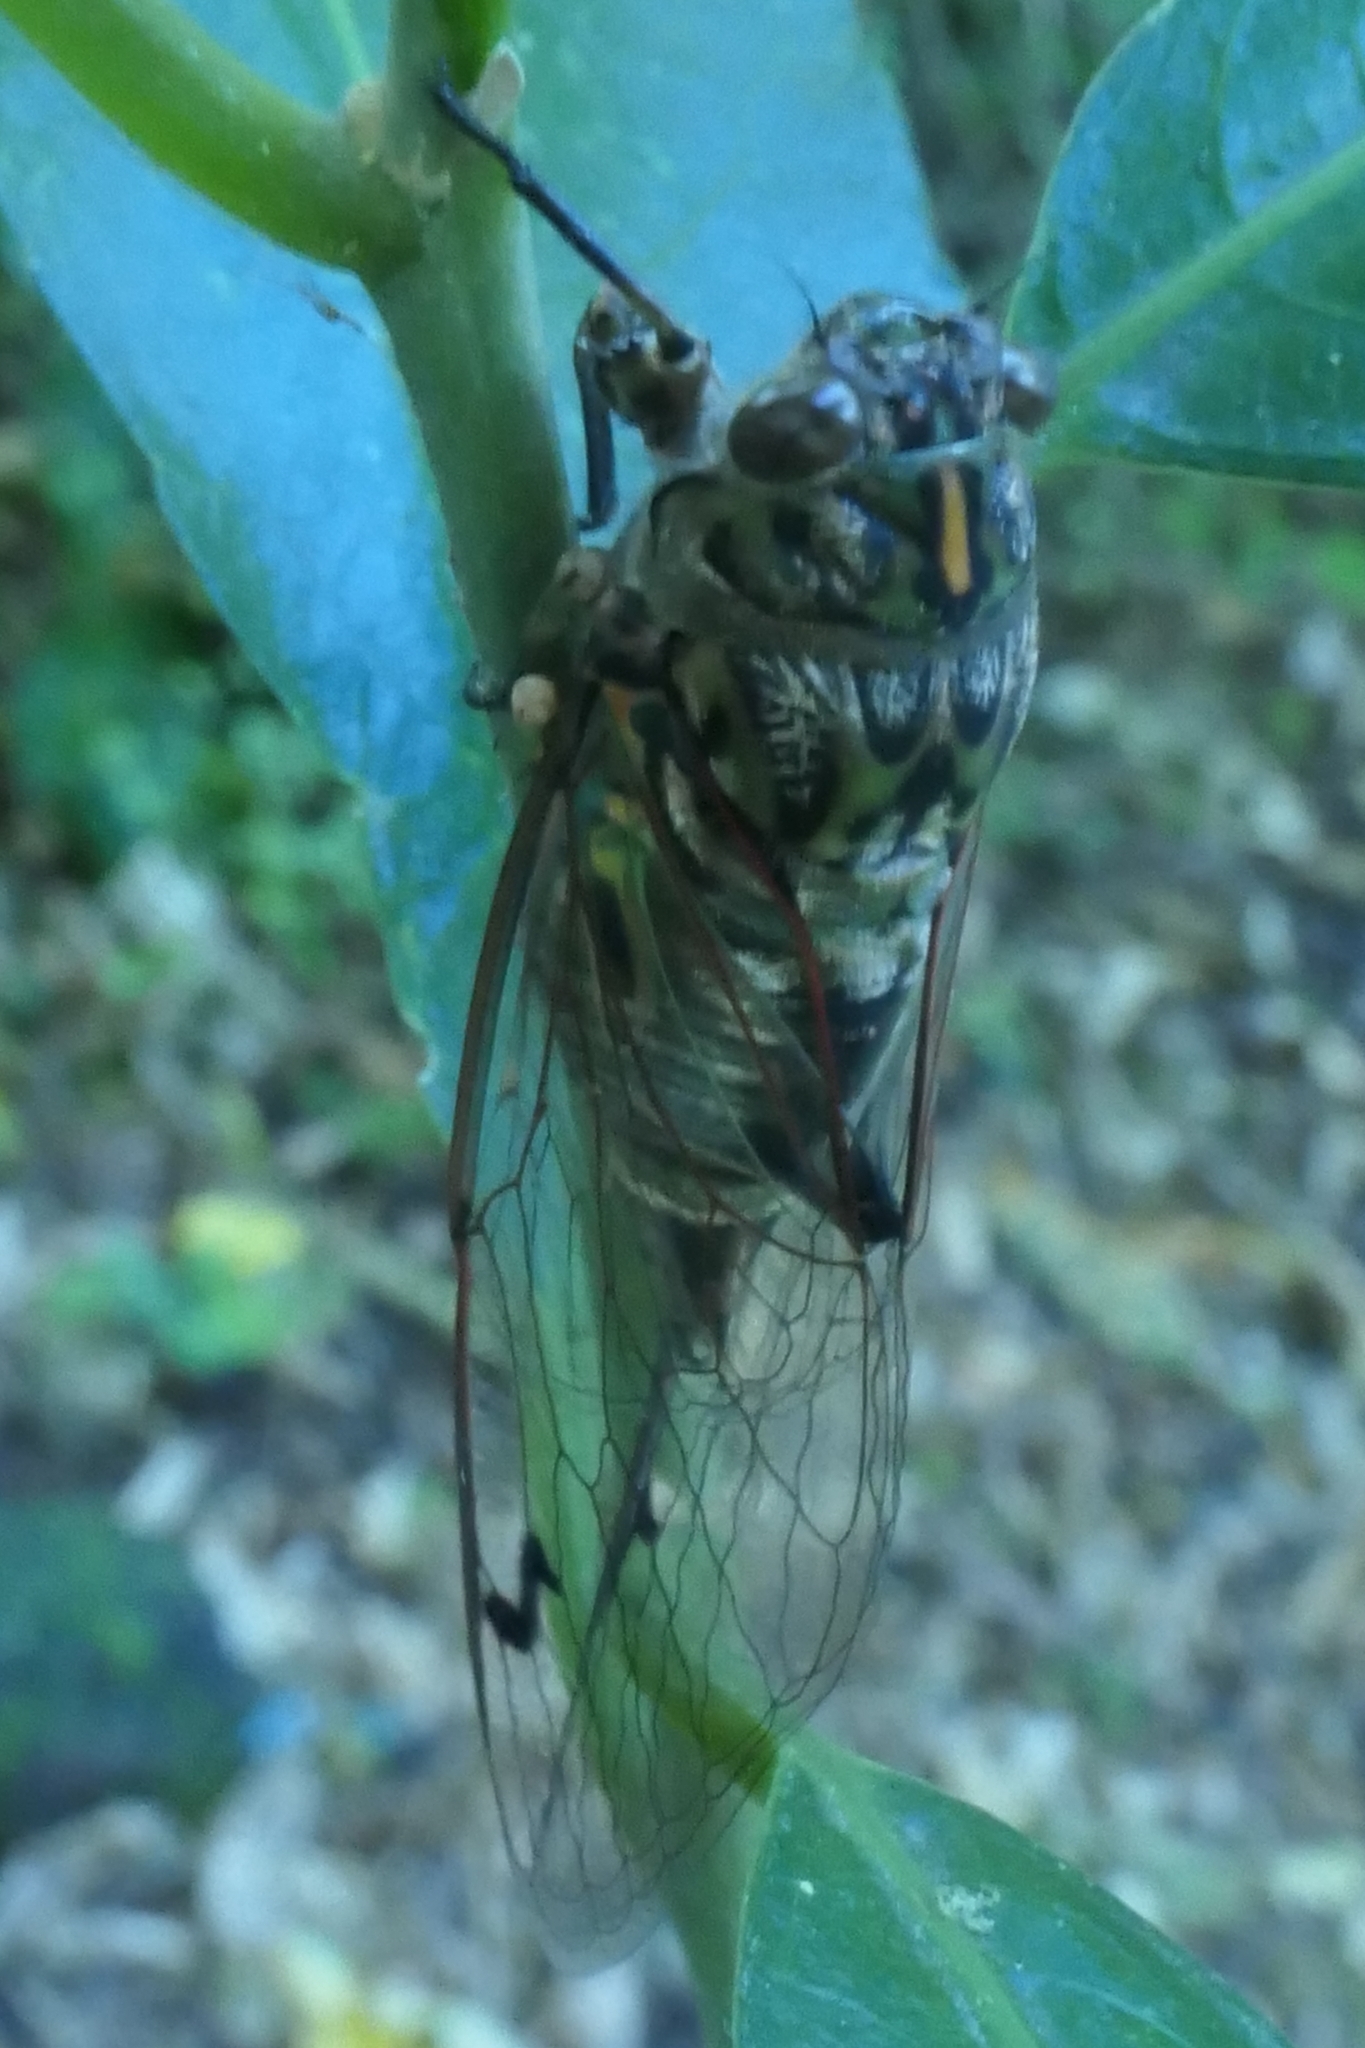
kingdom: Animalia
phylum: Arthropoda
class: Insecta
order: Hemiptera
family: Cicadidae
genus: Amphipsalta
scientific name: Amphipsalta zelandica
